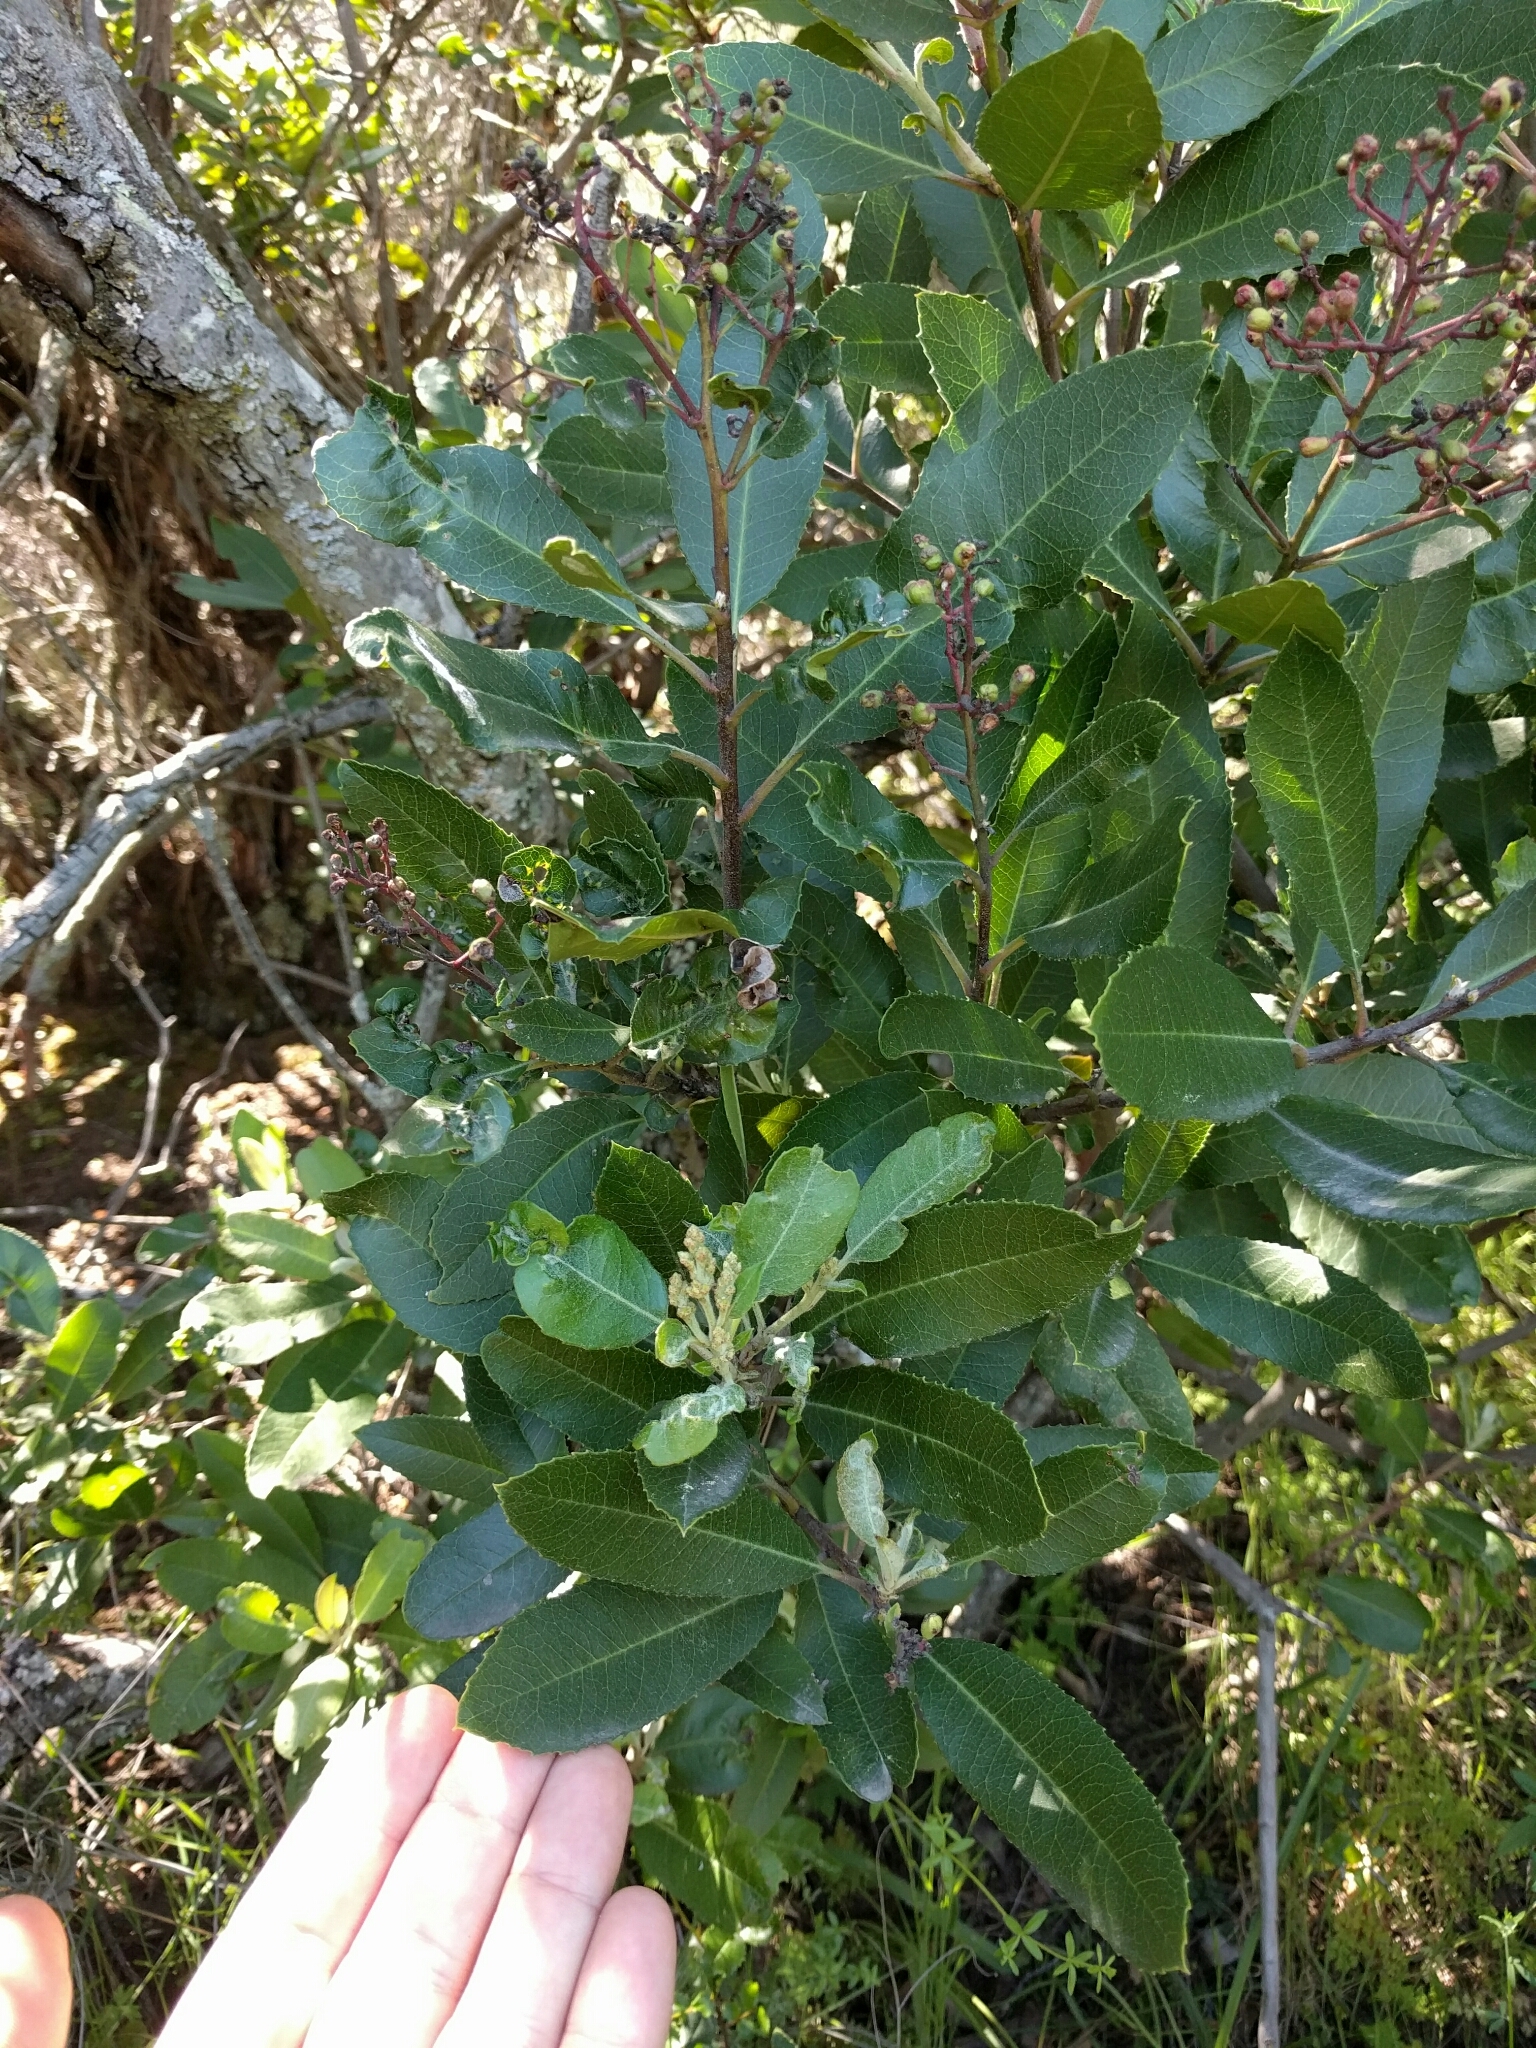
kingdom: Plantae
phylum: Tracheophyta
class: Magnoliopsida
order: Rosales
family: Rosaceae
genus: Heteromeles
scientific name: Heteromeles arbutifolia
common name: California-holly
